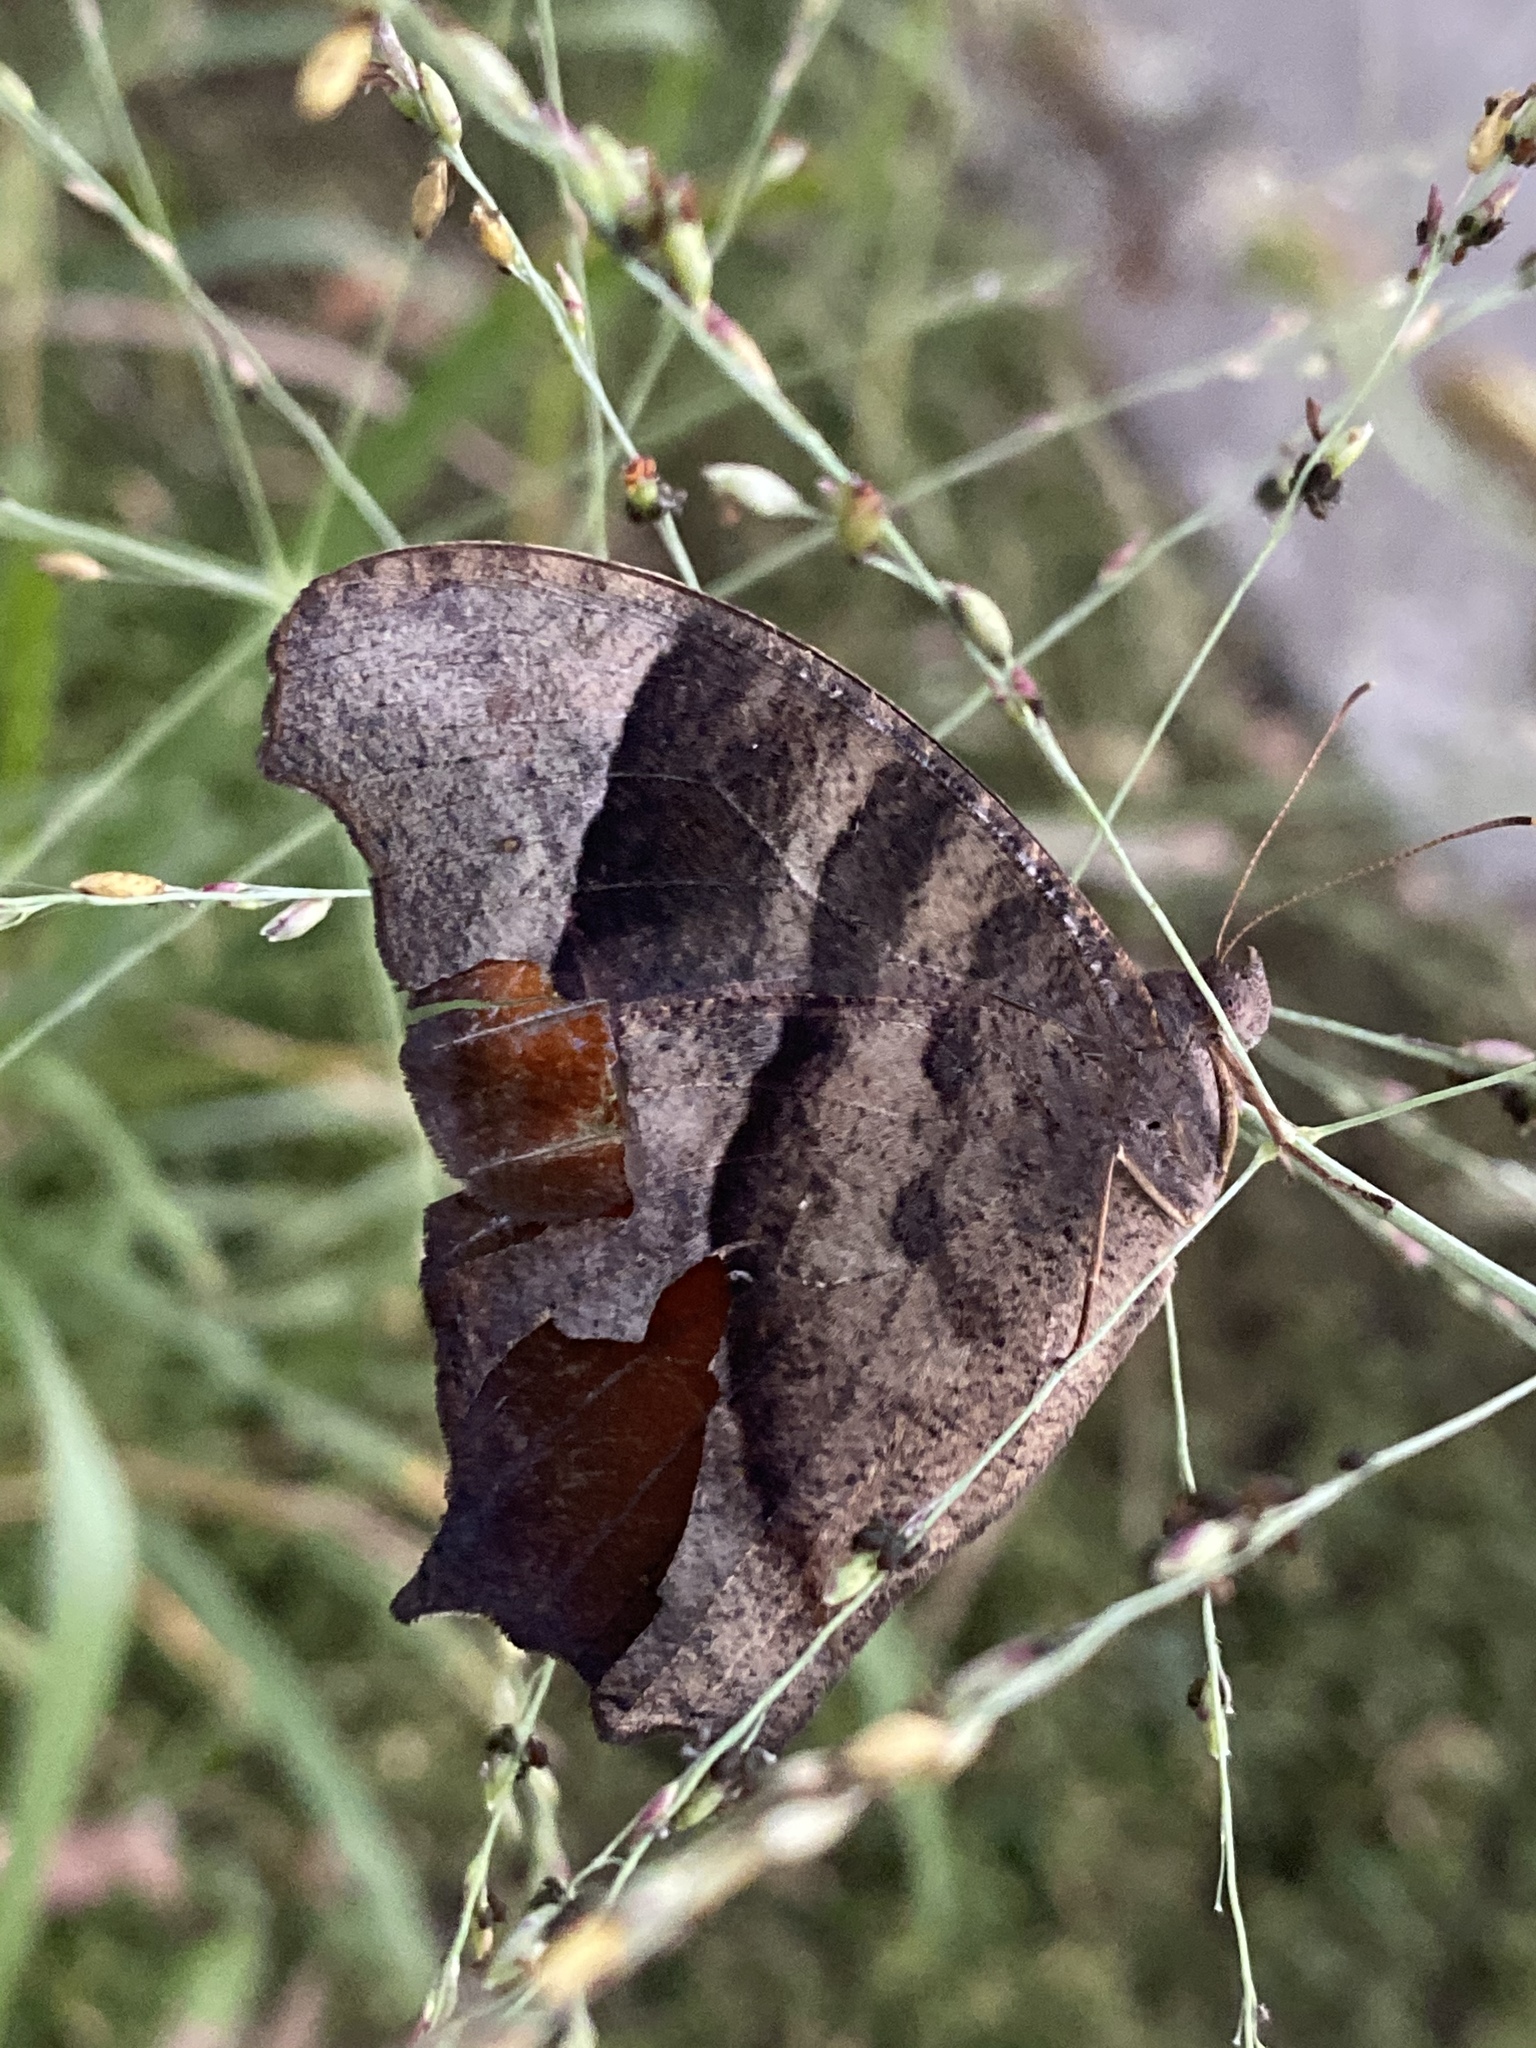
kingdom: Animalia
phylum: Arthropoda
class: Insecta
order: Lepidoptera
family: Nymphalidae
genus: Melanitis
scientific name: Melanitis leda
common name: Twilight brown
